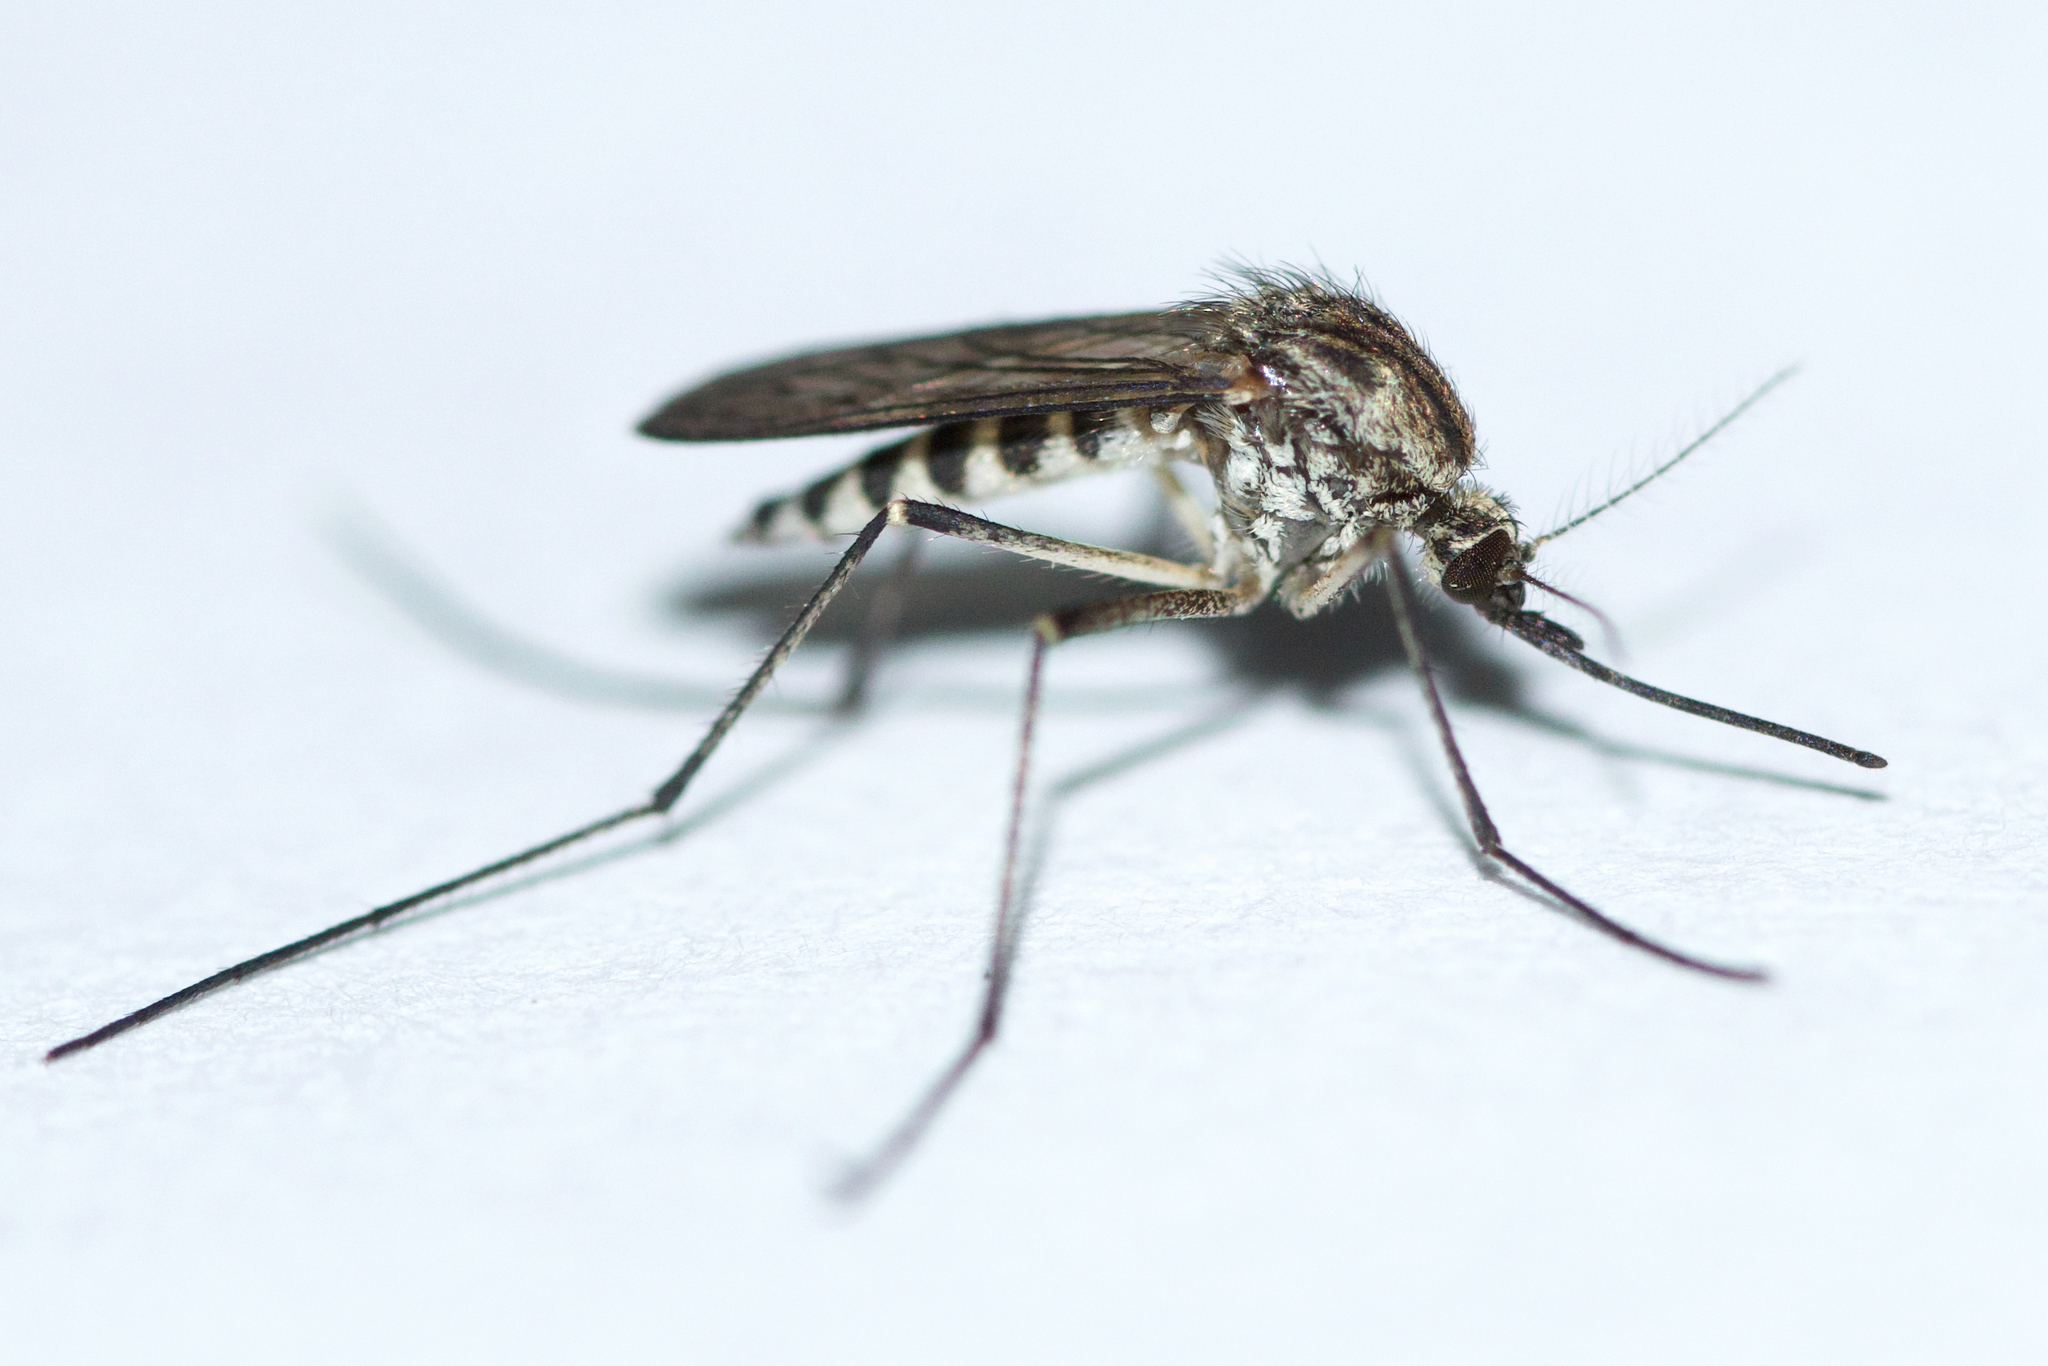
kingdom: Animalia
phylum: Arthropoda
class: Insecta
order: Diptera
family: Culicidae
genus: Aedes
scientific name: Aedes provocans
